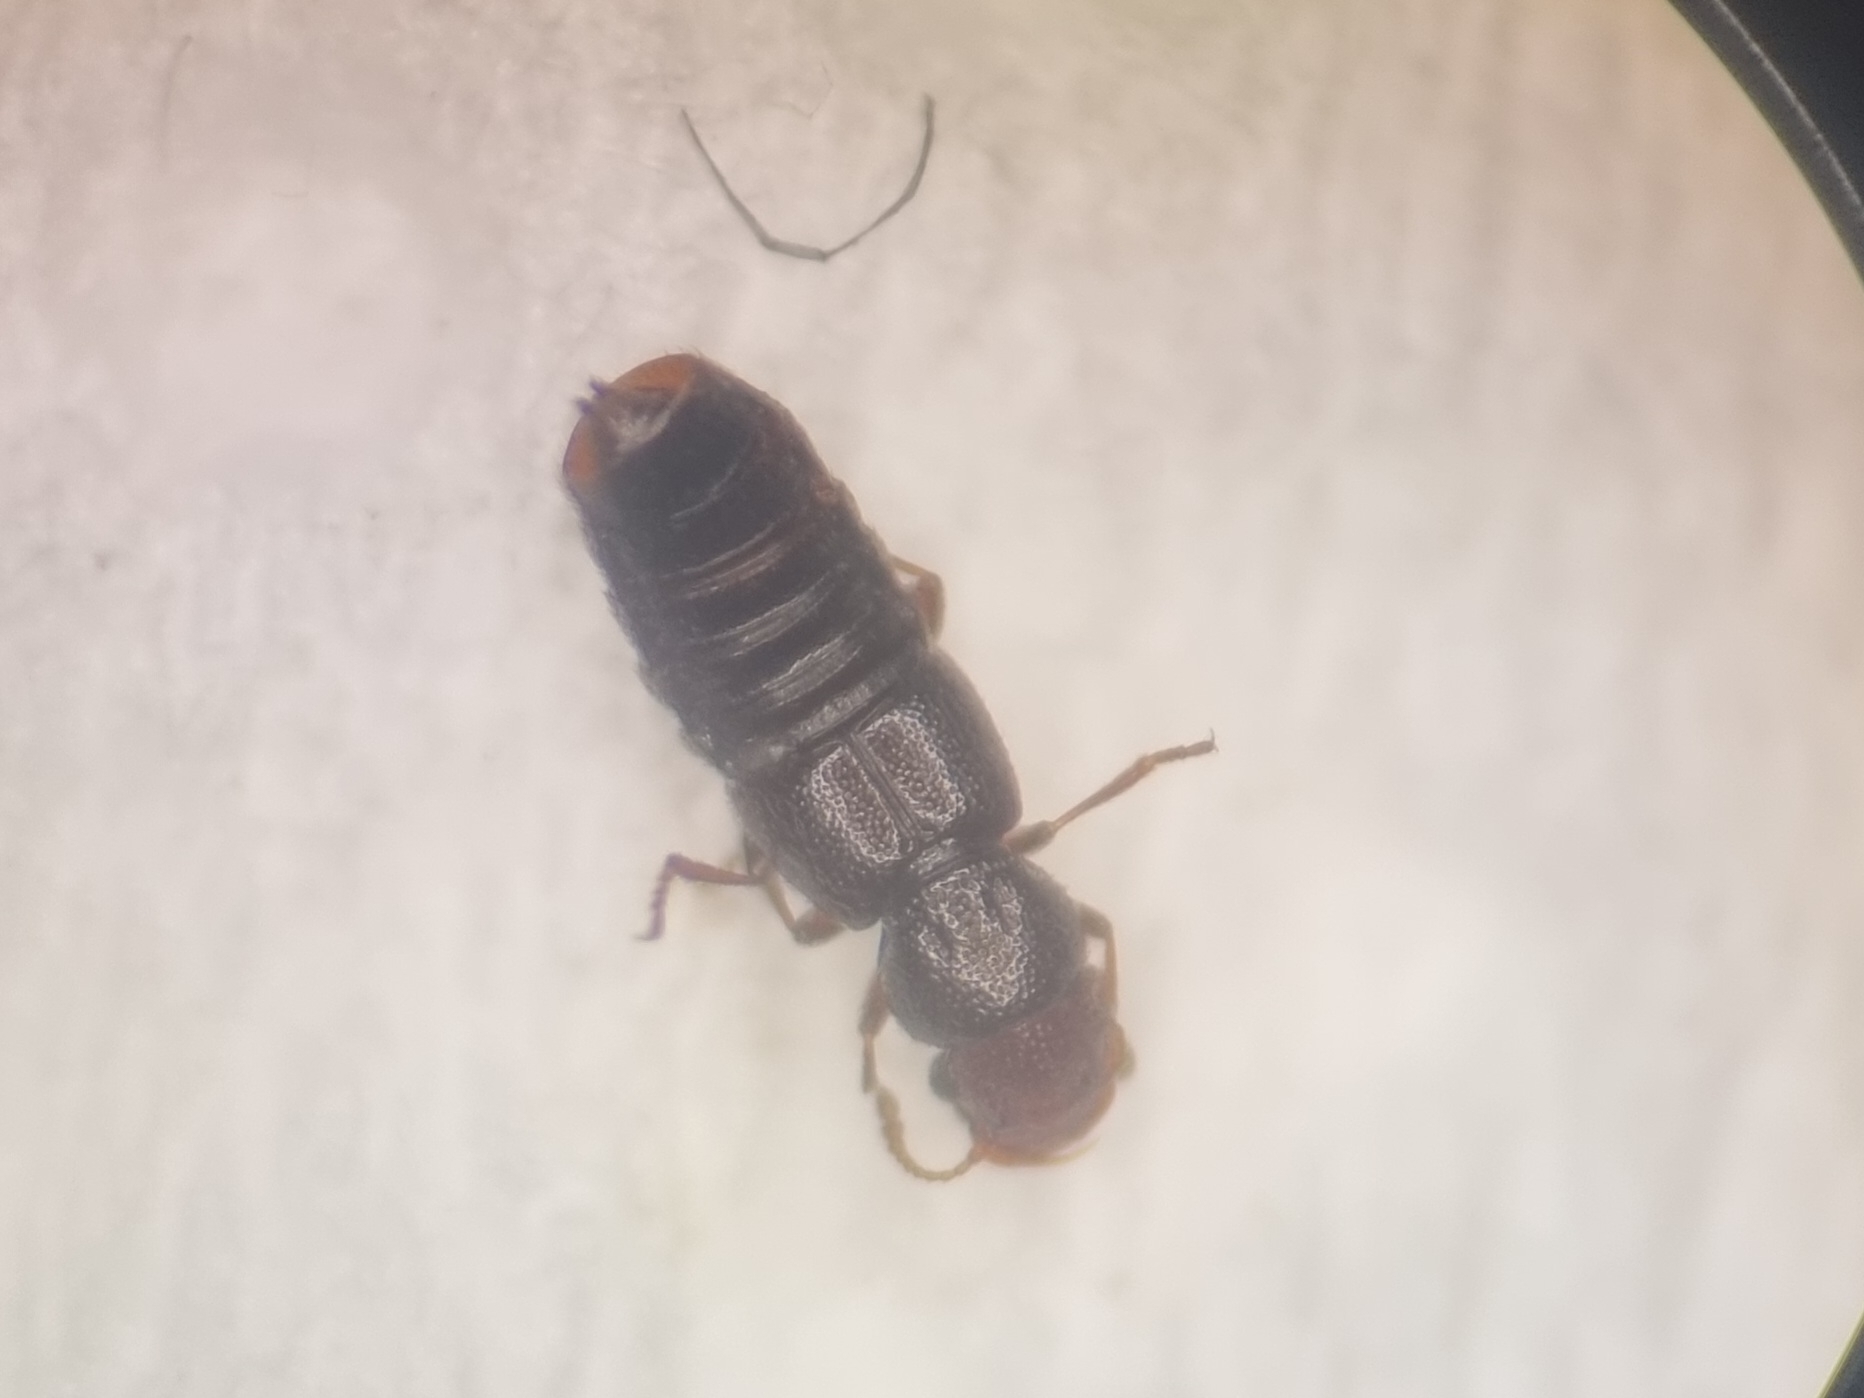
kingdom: Animalia
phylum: Arthropoda
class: Insecta
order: Coleoptera
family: Staphylinidae
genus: Euaesthetus
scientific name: Euaesthetus laeviusculus
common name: Staph beetle
